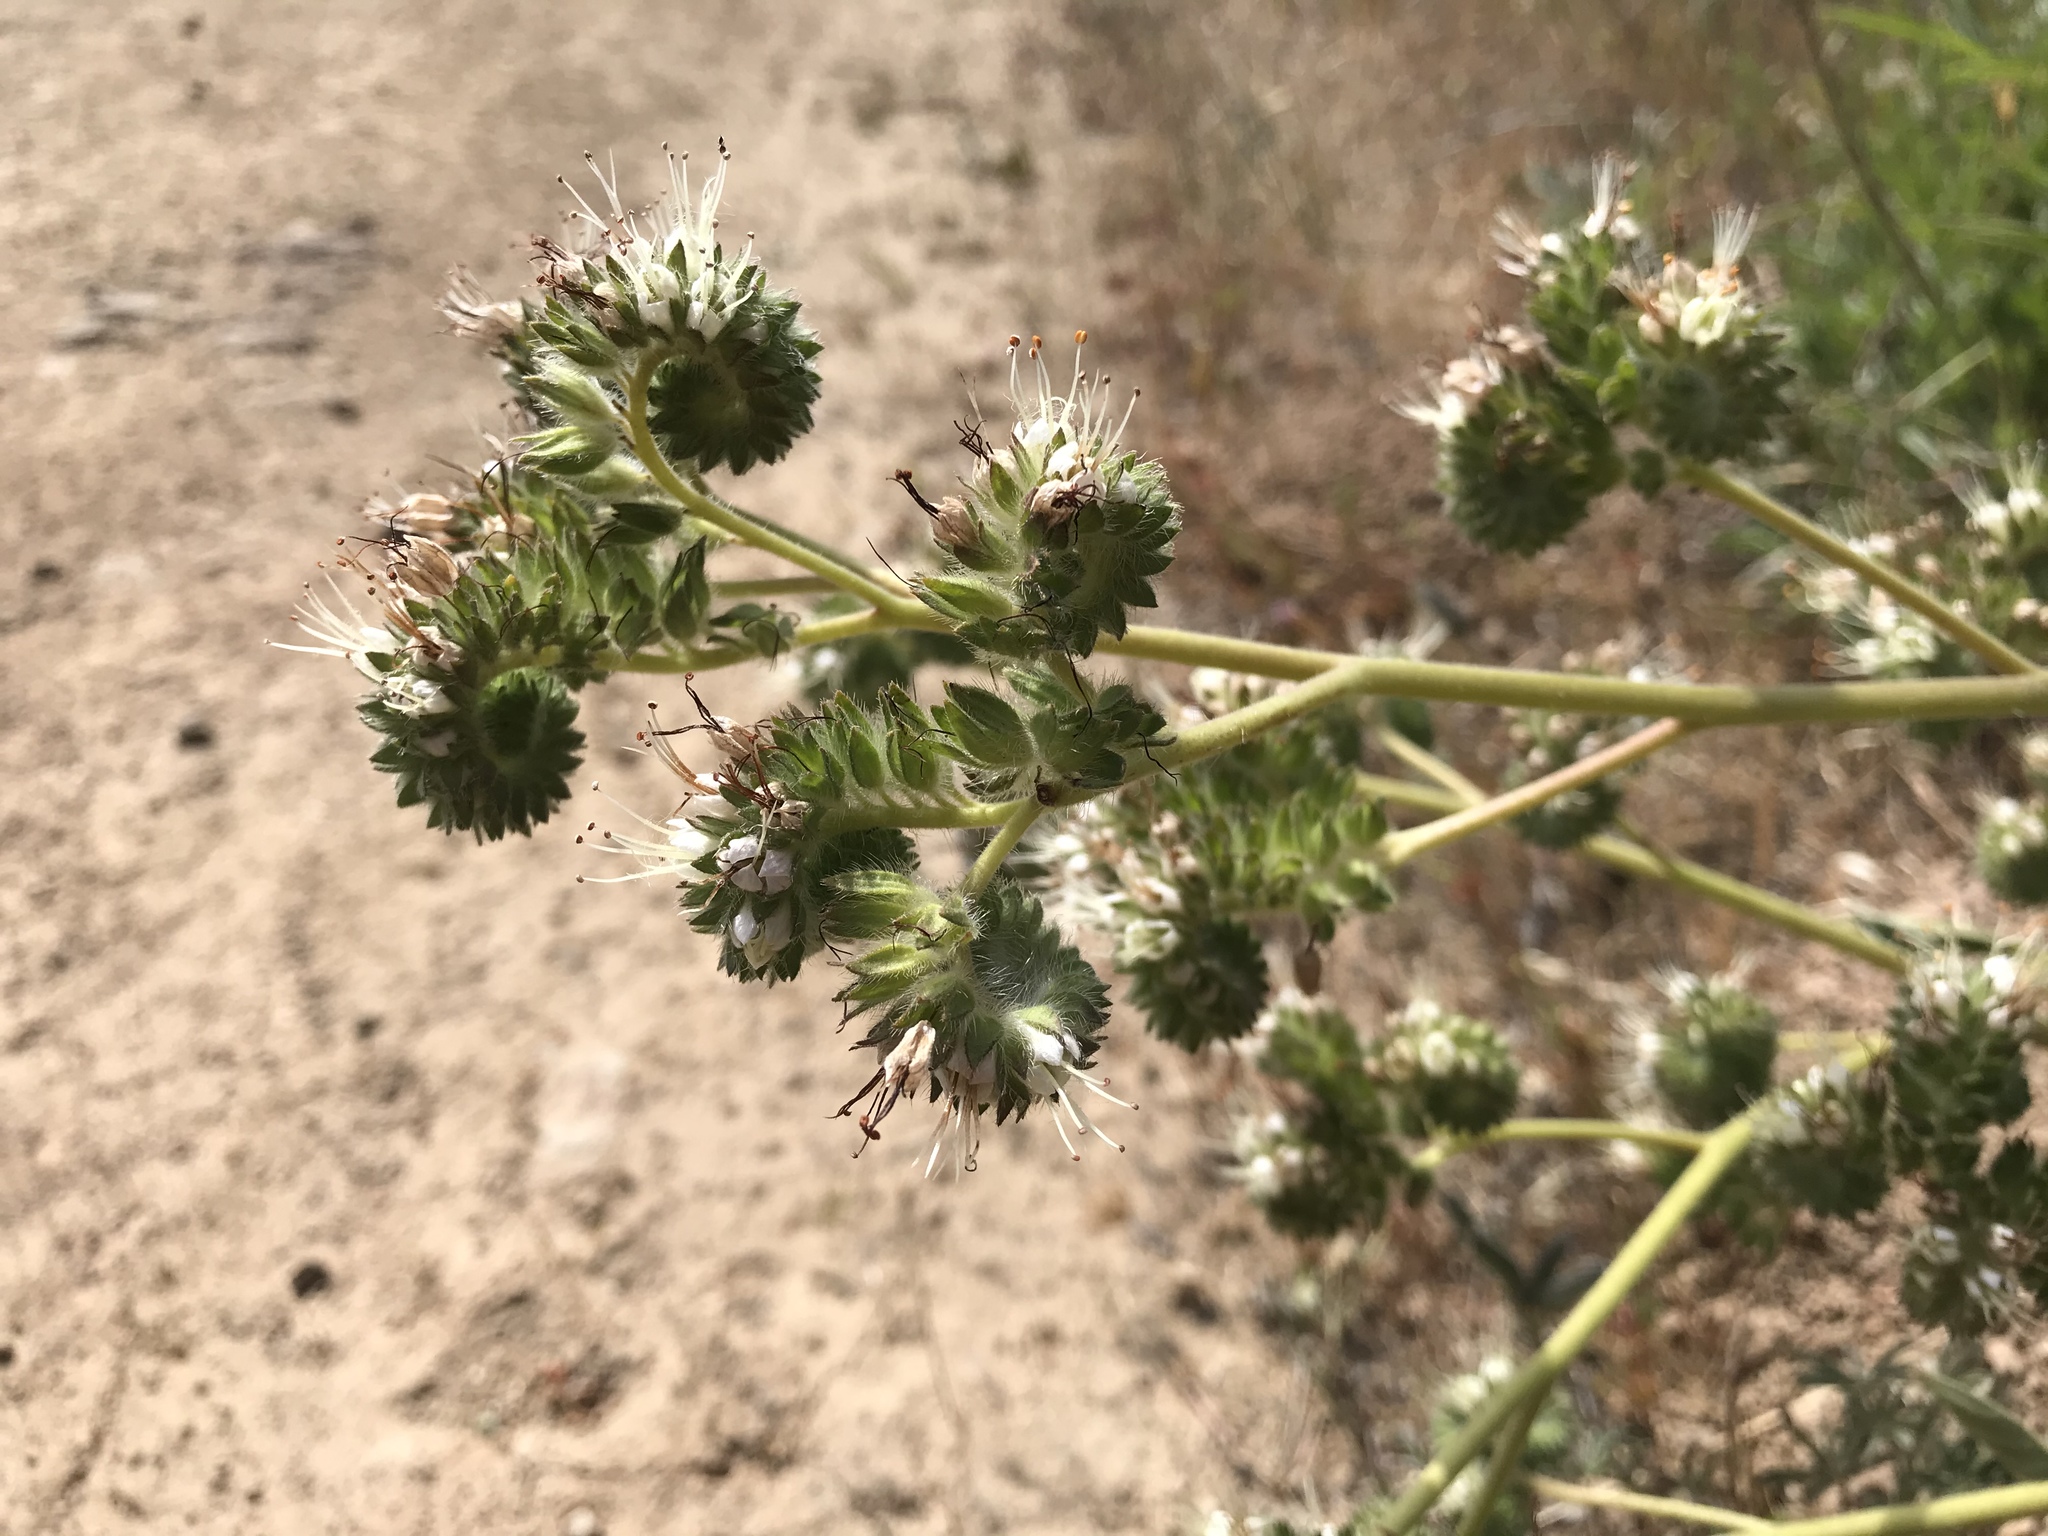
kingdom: Plantae
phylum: Tracheophyta
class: Magnoliopsida
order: Boraginales
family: Hydrophyllaceae
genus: Phacelia
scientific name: Phacelia imbricata
